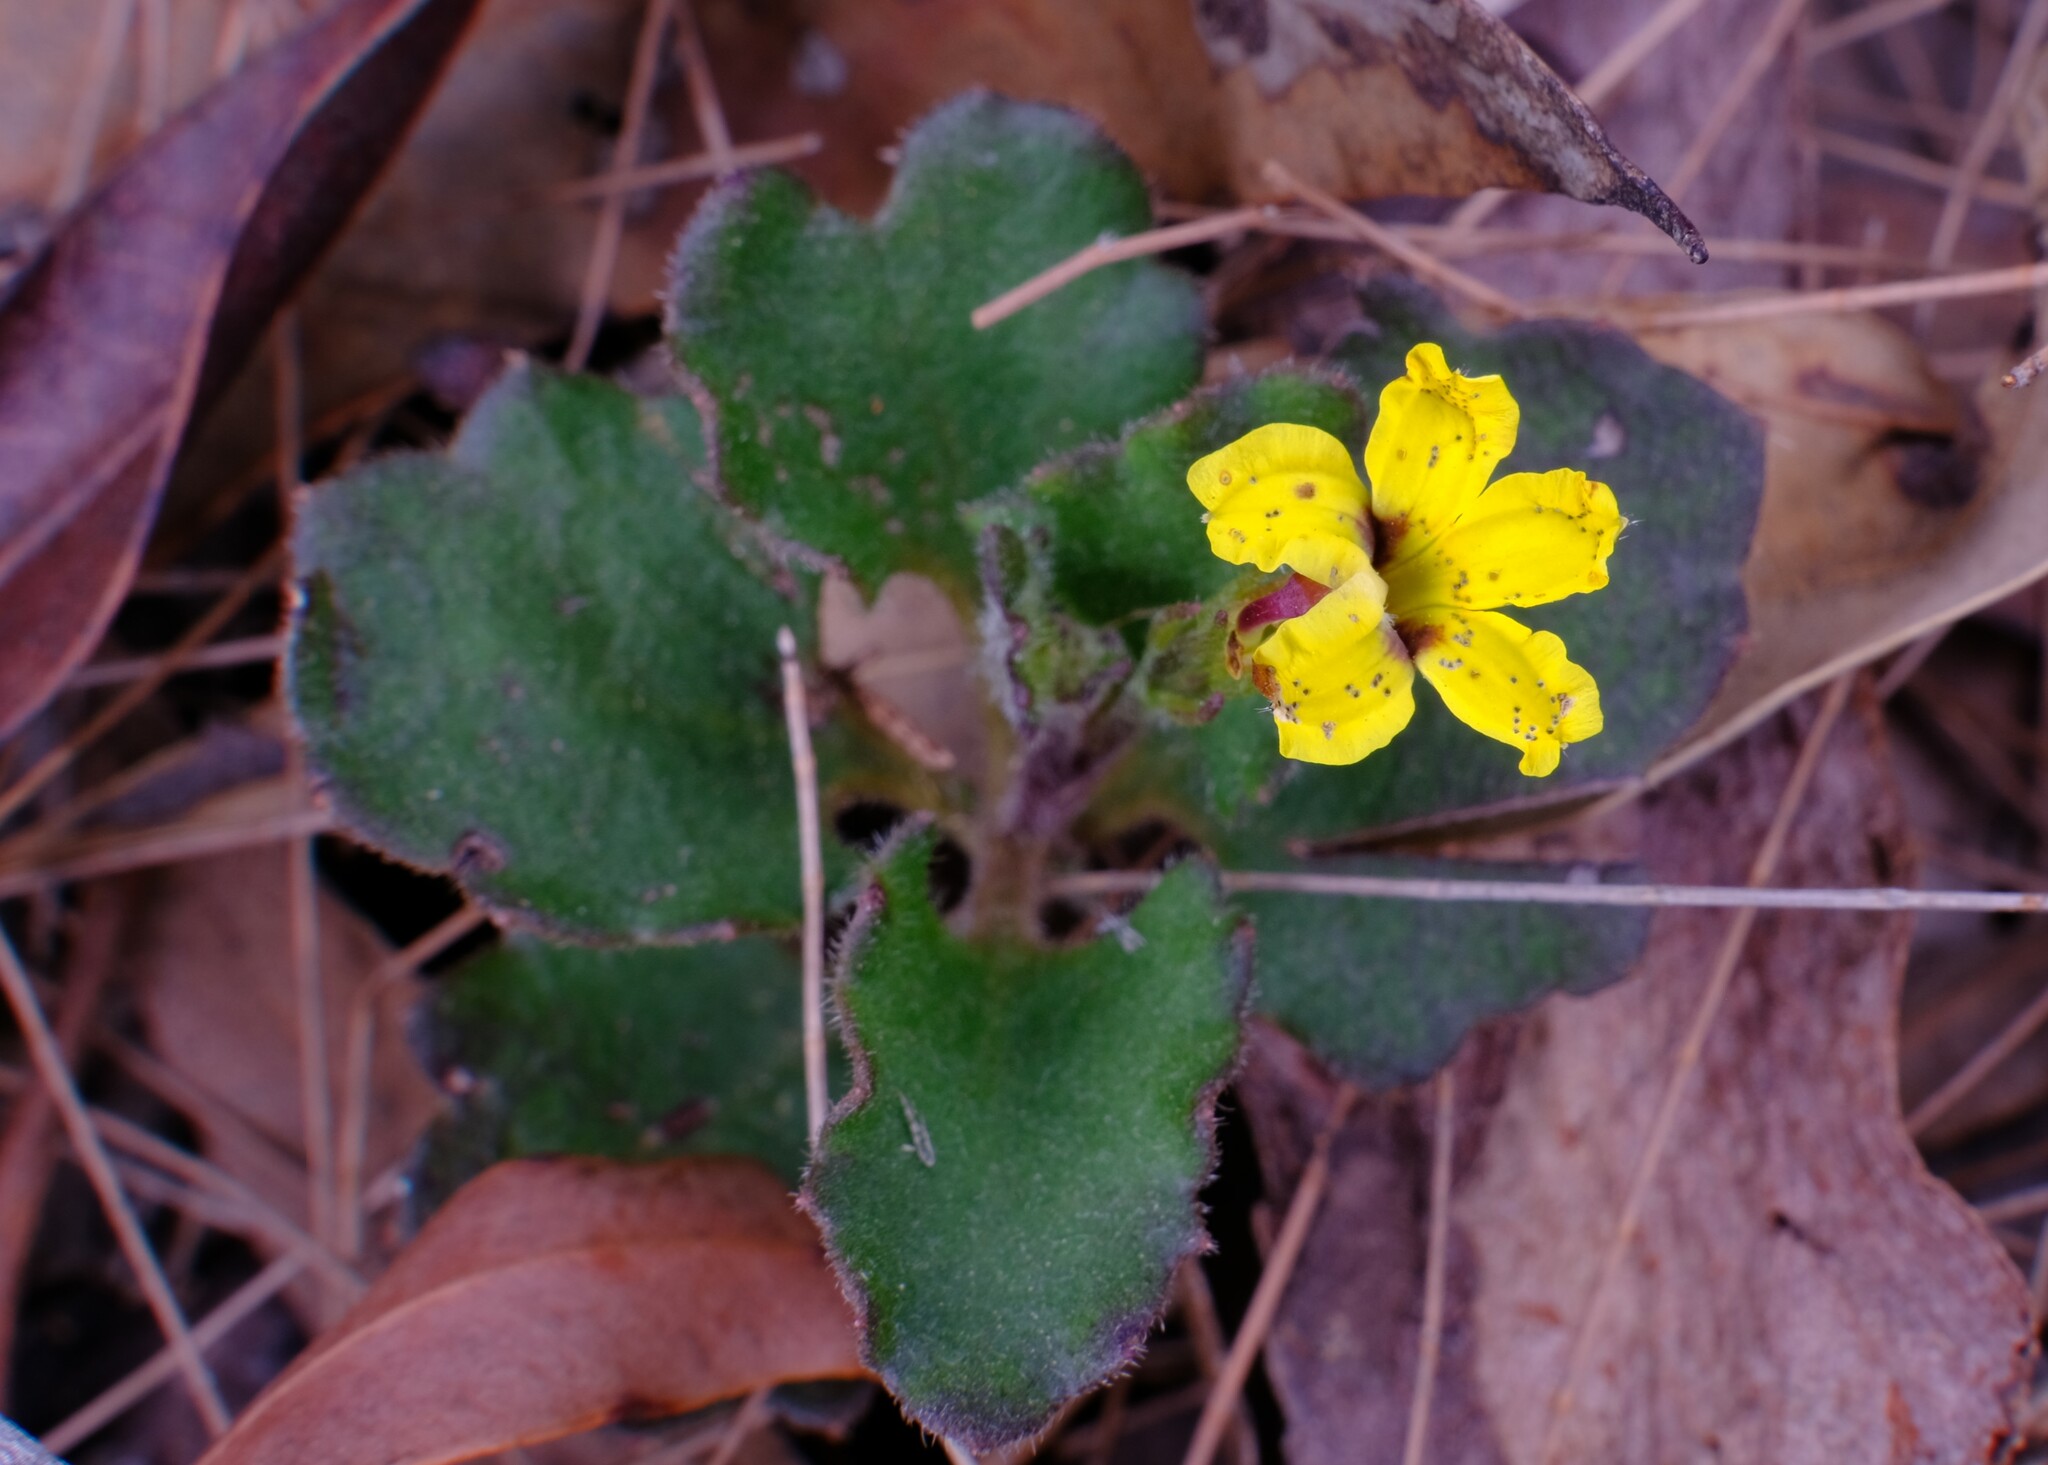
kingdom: Plantae
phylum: Tracheophyta
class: Magnoliopsida
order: Asterales
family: Goodeniaceae
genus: Goodenia
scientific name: Goodenia rotundifolia
